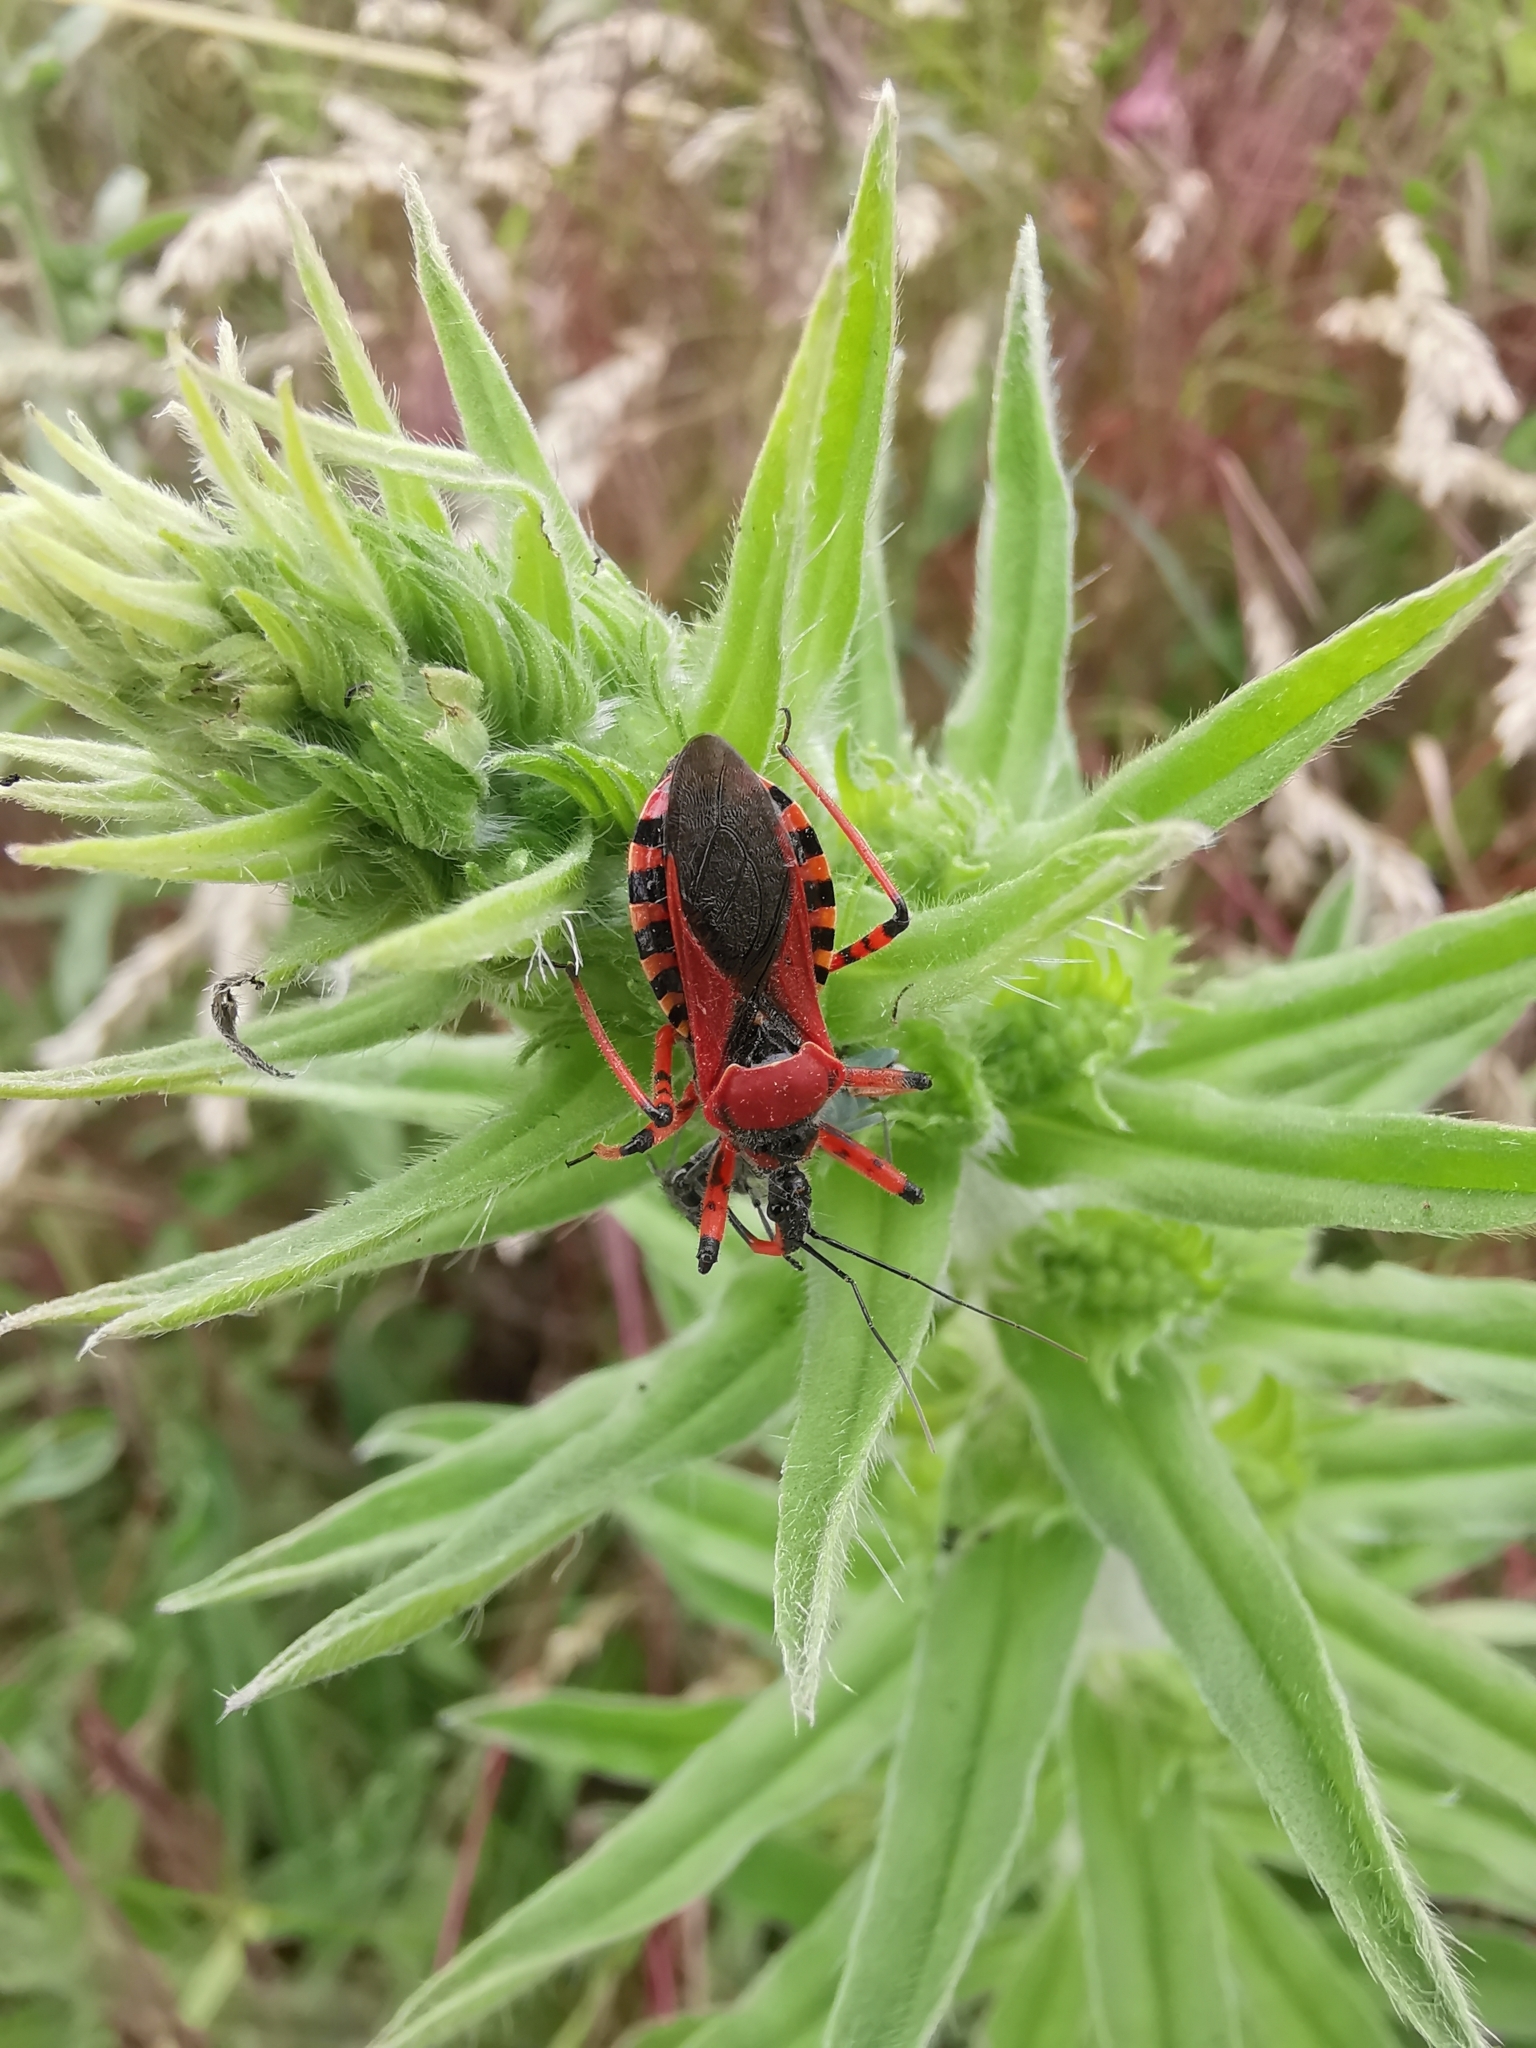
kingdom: Animalia
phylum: Arthropoda
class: Insecta
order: Hemiptera
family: Reduviidae
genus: Rhynocoris
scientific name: Rhynocoris iracundus
